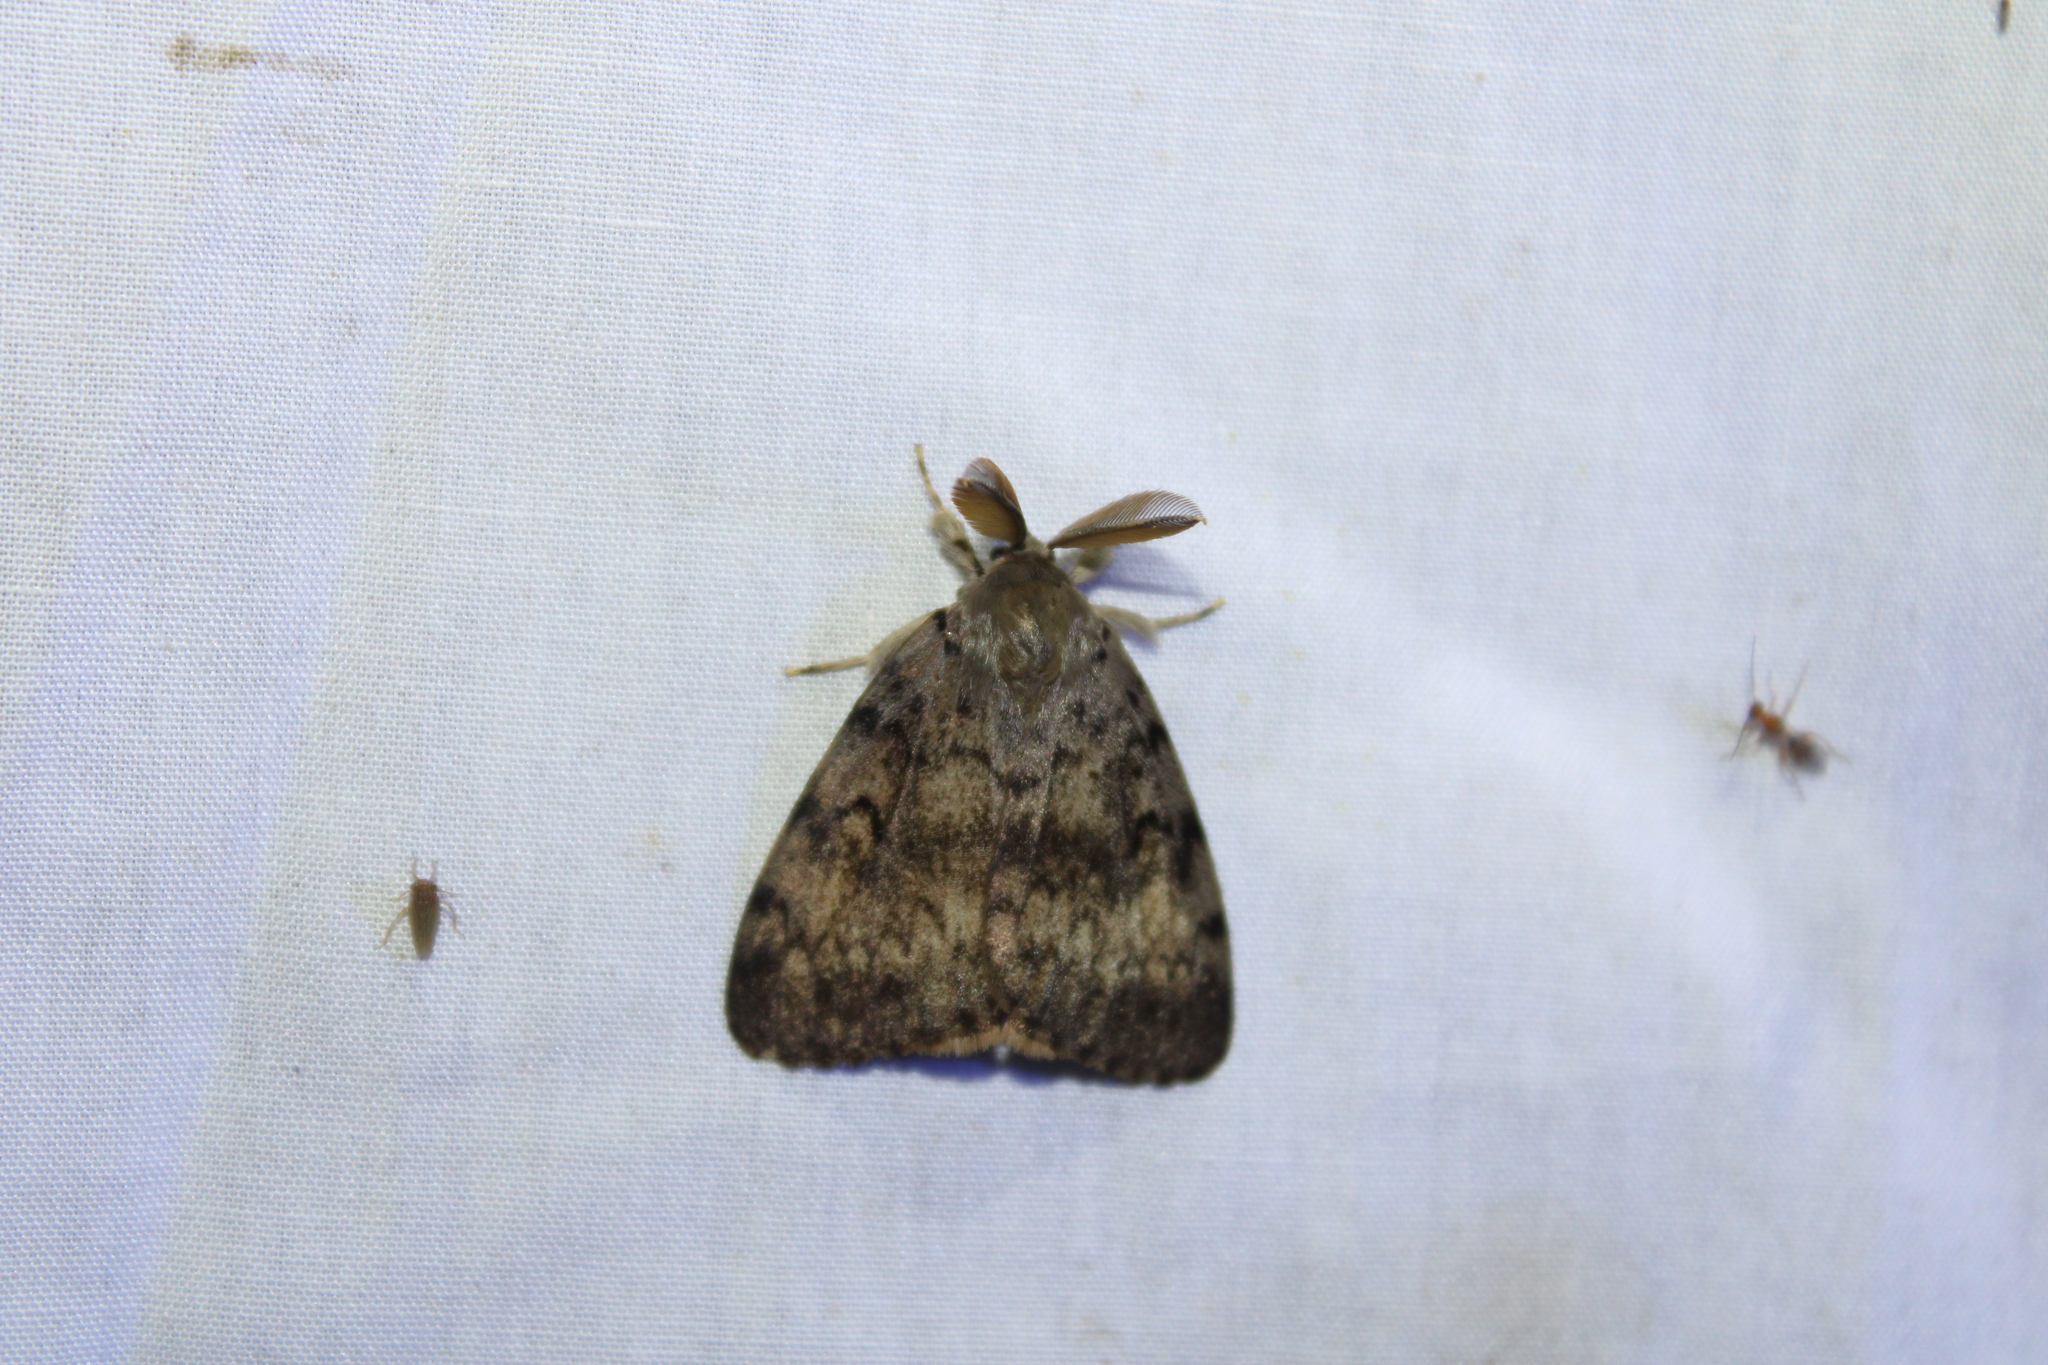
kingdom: Animalia
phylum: Arthropoda
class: Insecta
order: Lepidoptera
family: Erebidae
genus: Lymantria
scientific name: Lymantria dispar
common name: Gypsy moth
